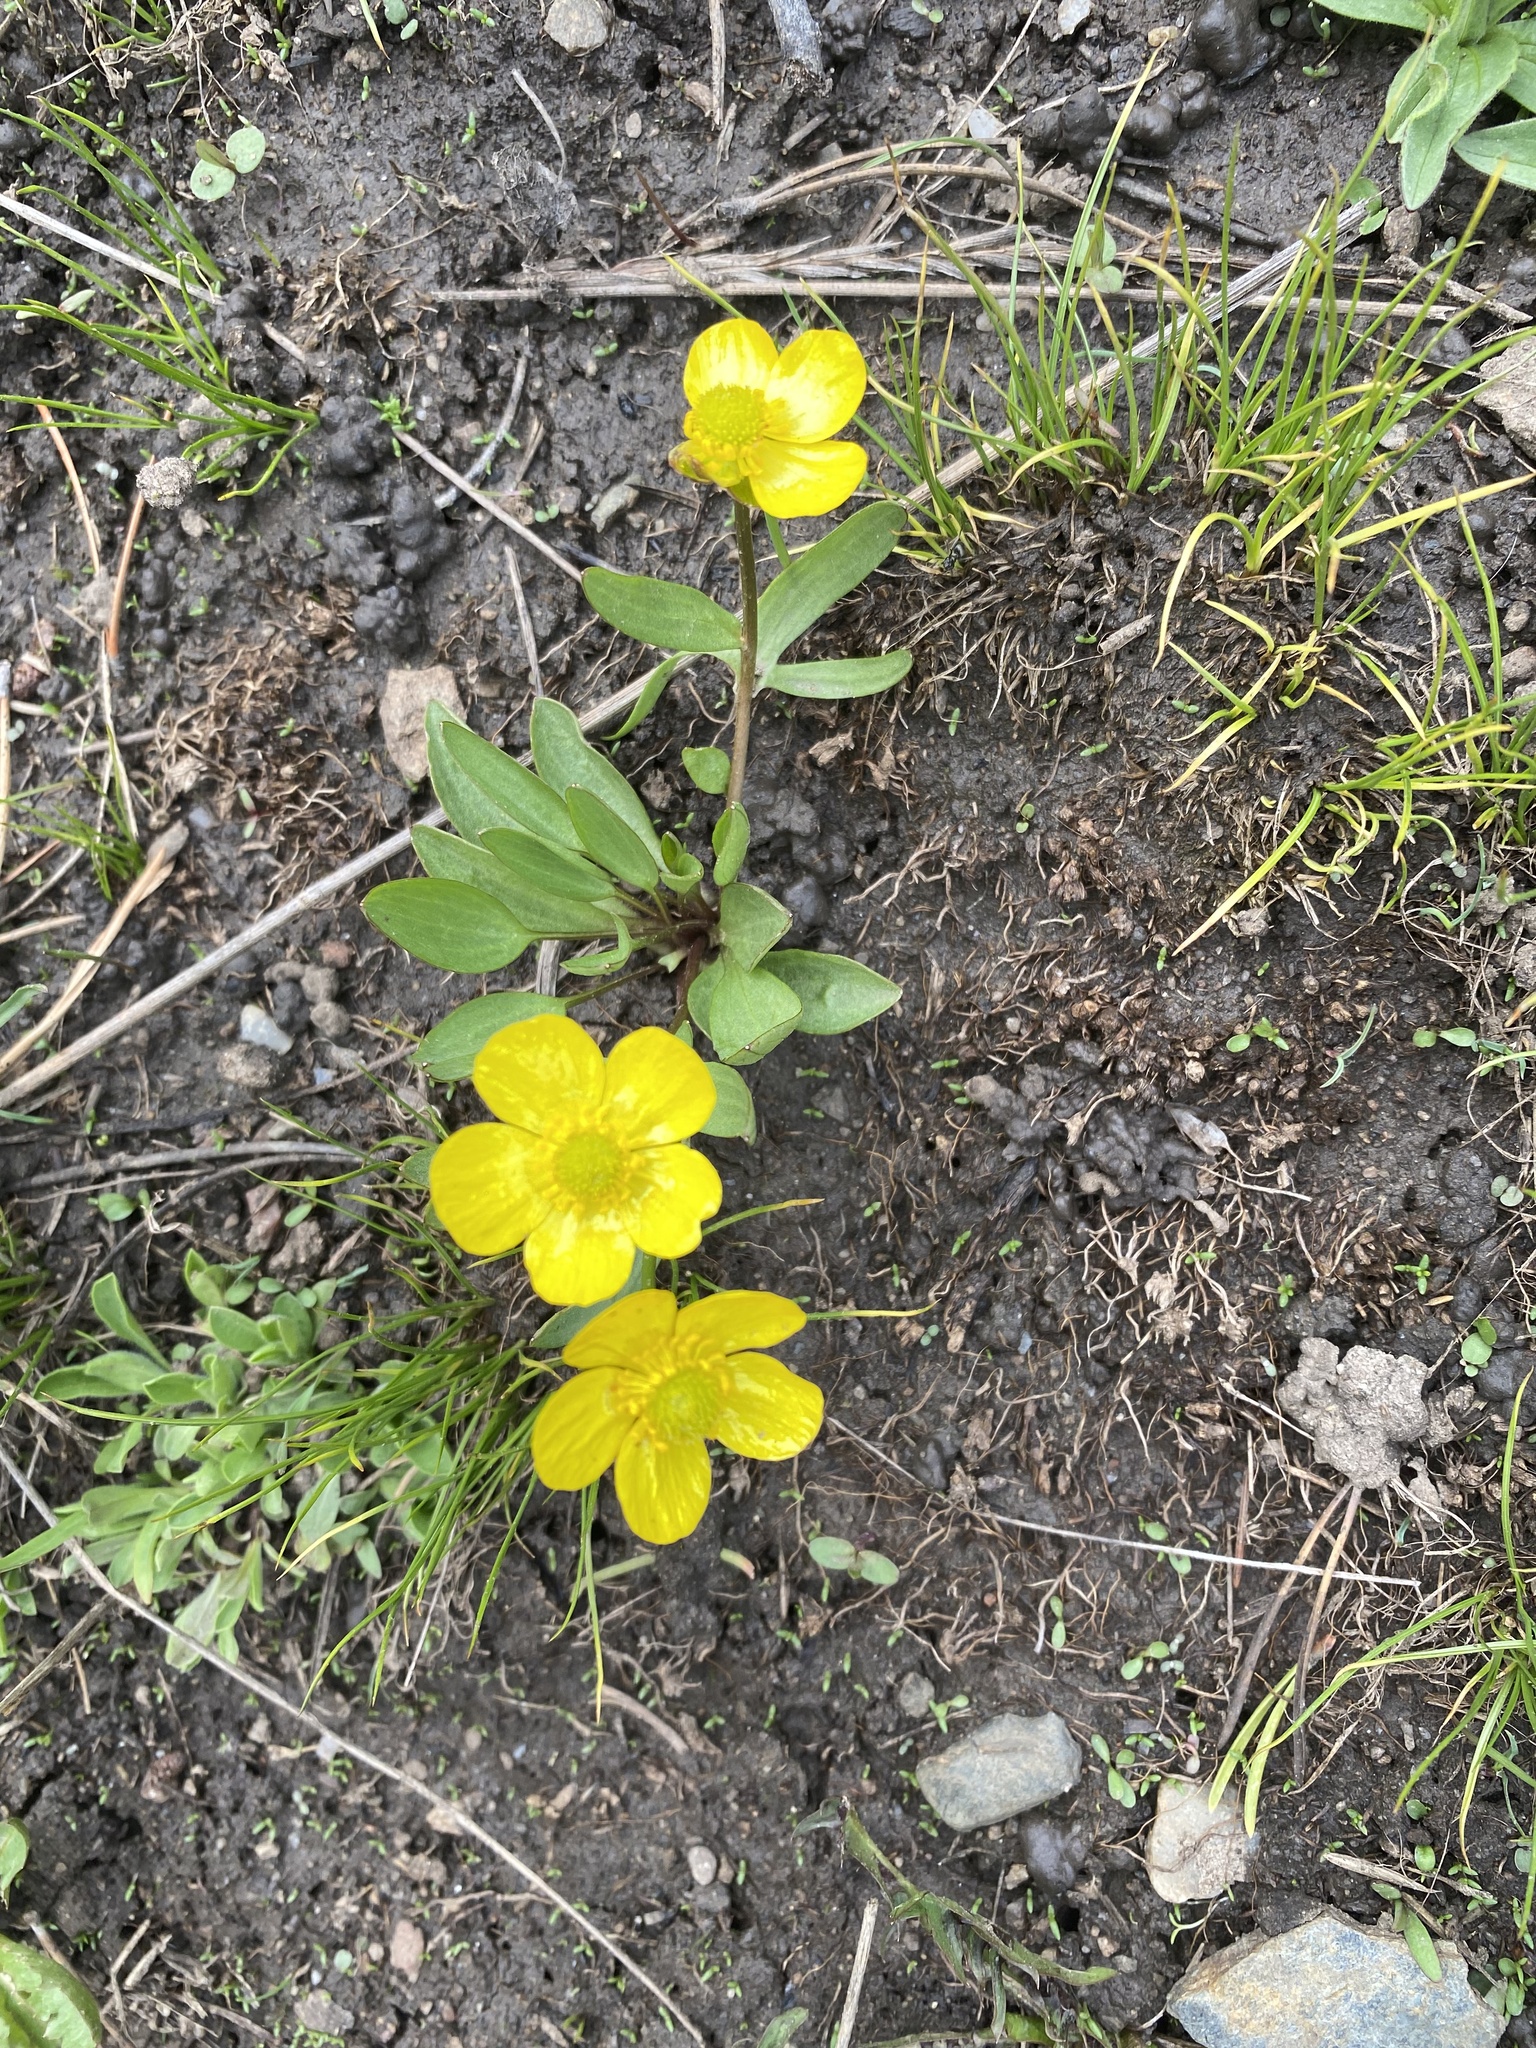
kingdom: Plantae
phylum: Tracheophyta
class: Magnoliopsida
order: Ranunculales
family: Ranunculaceae
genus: Ranunculus
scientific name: Ranunculus glaberrimus
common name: Sagebrush buttercup
